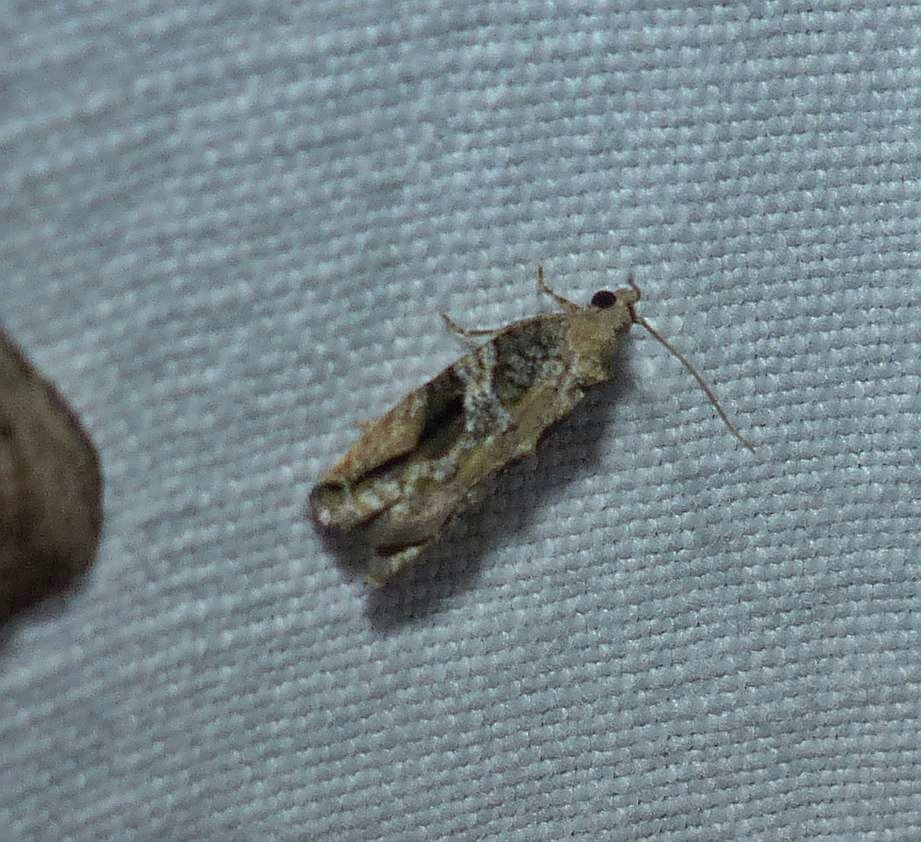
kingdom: Animalia
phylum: Arthropoda
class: Insecta
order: Lepidoptera
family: Tortricidae
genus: Proteoteras
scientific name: Proteoteras crescentana
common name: Black-crescent proteoteras moth
